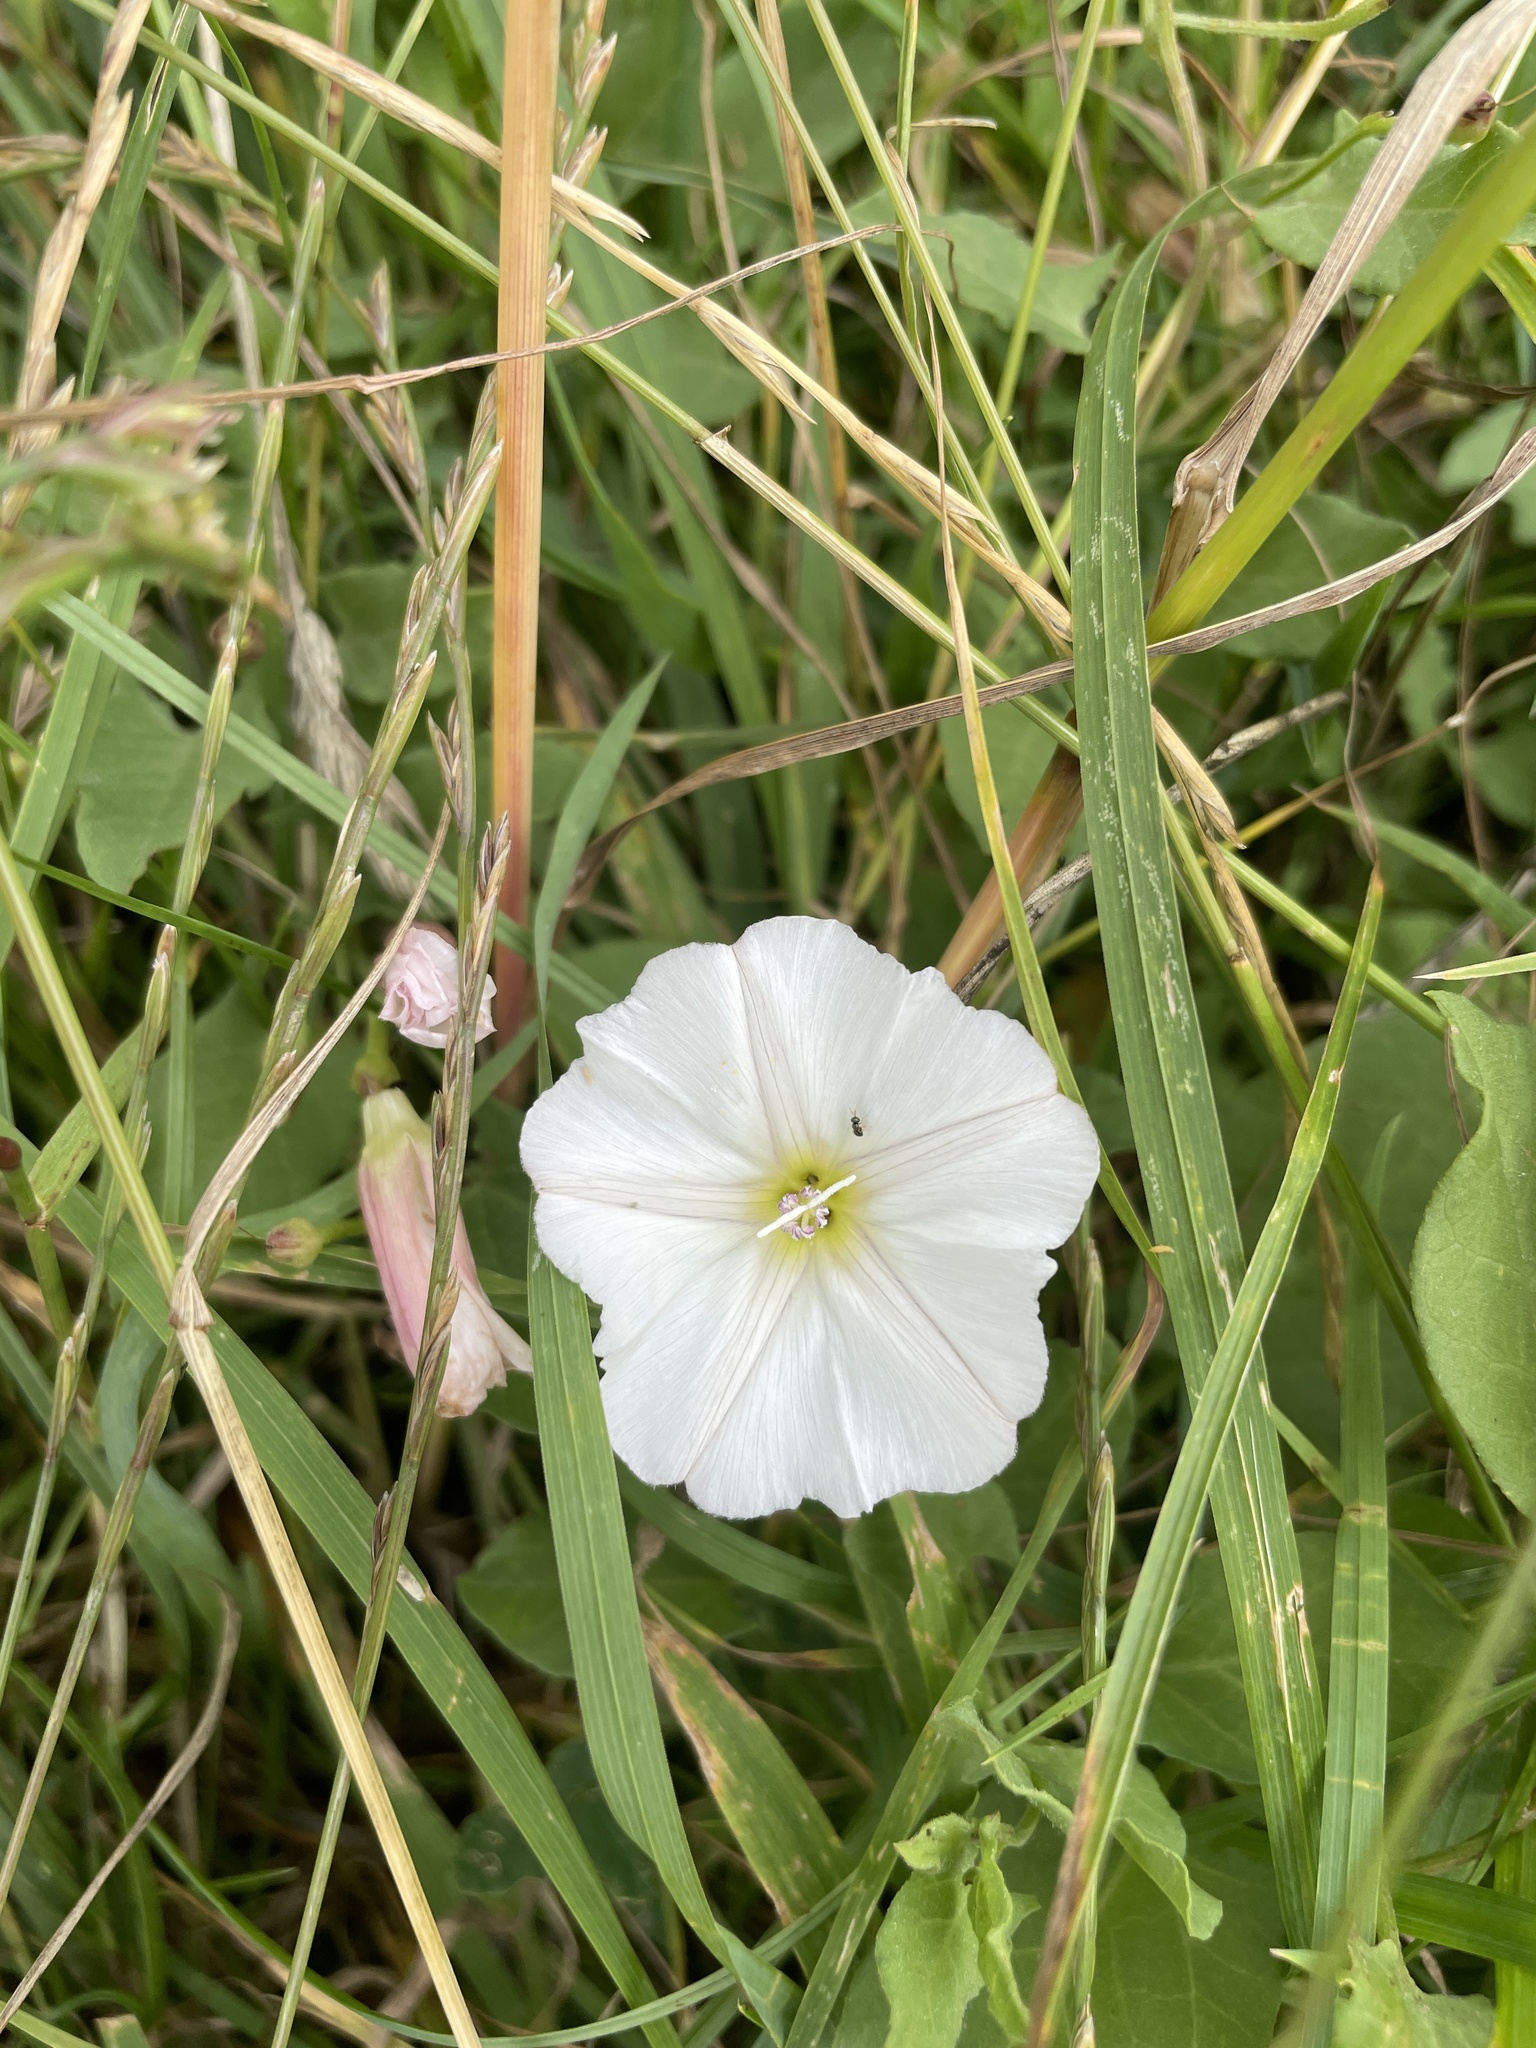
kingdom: Plantae
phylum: Tracheophyta
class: Magnoliopsida
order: Solanales
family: Convolvulaceae
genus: Convolvulus
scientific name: Convolvulus arvensis
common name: Field bindweed
